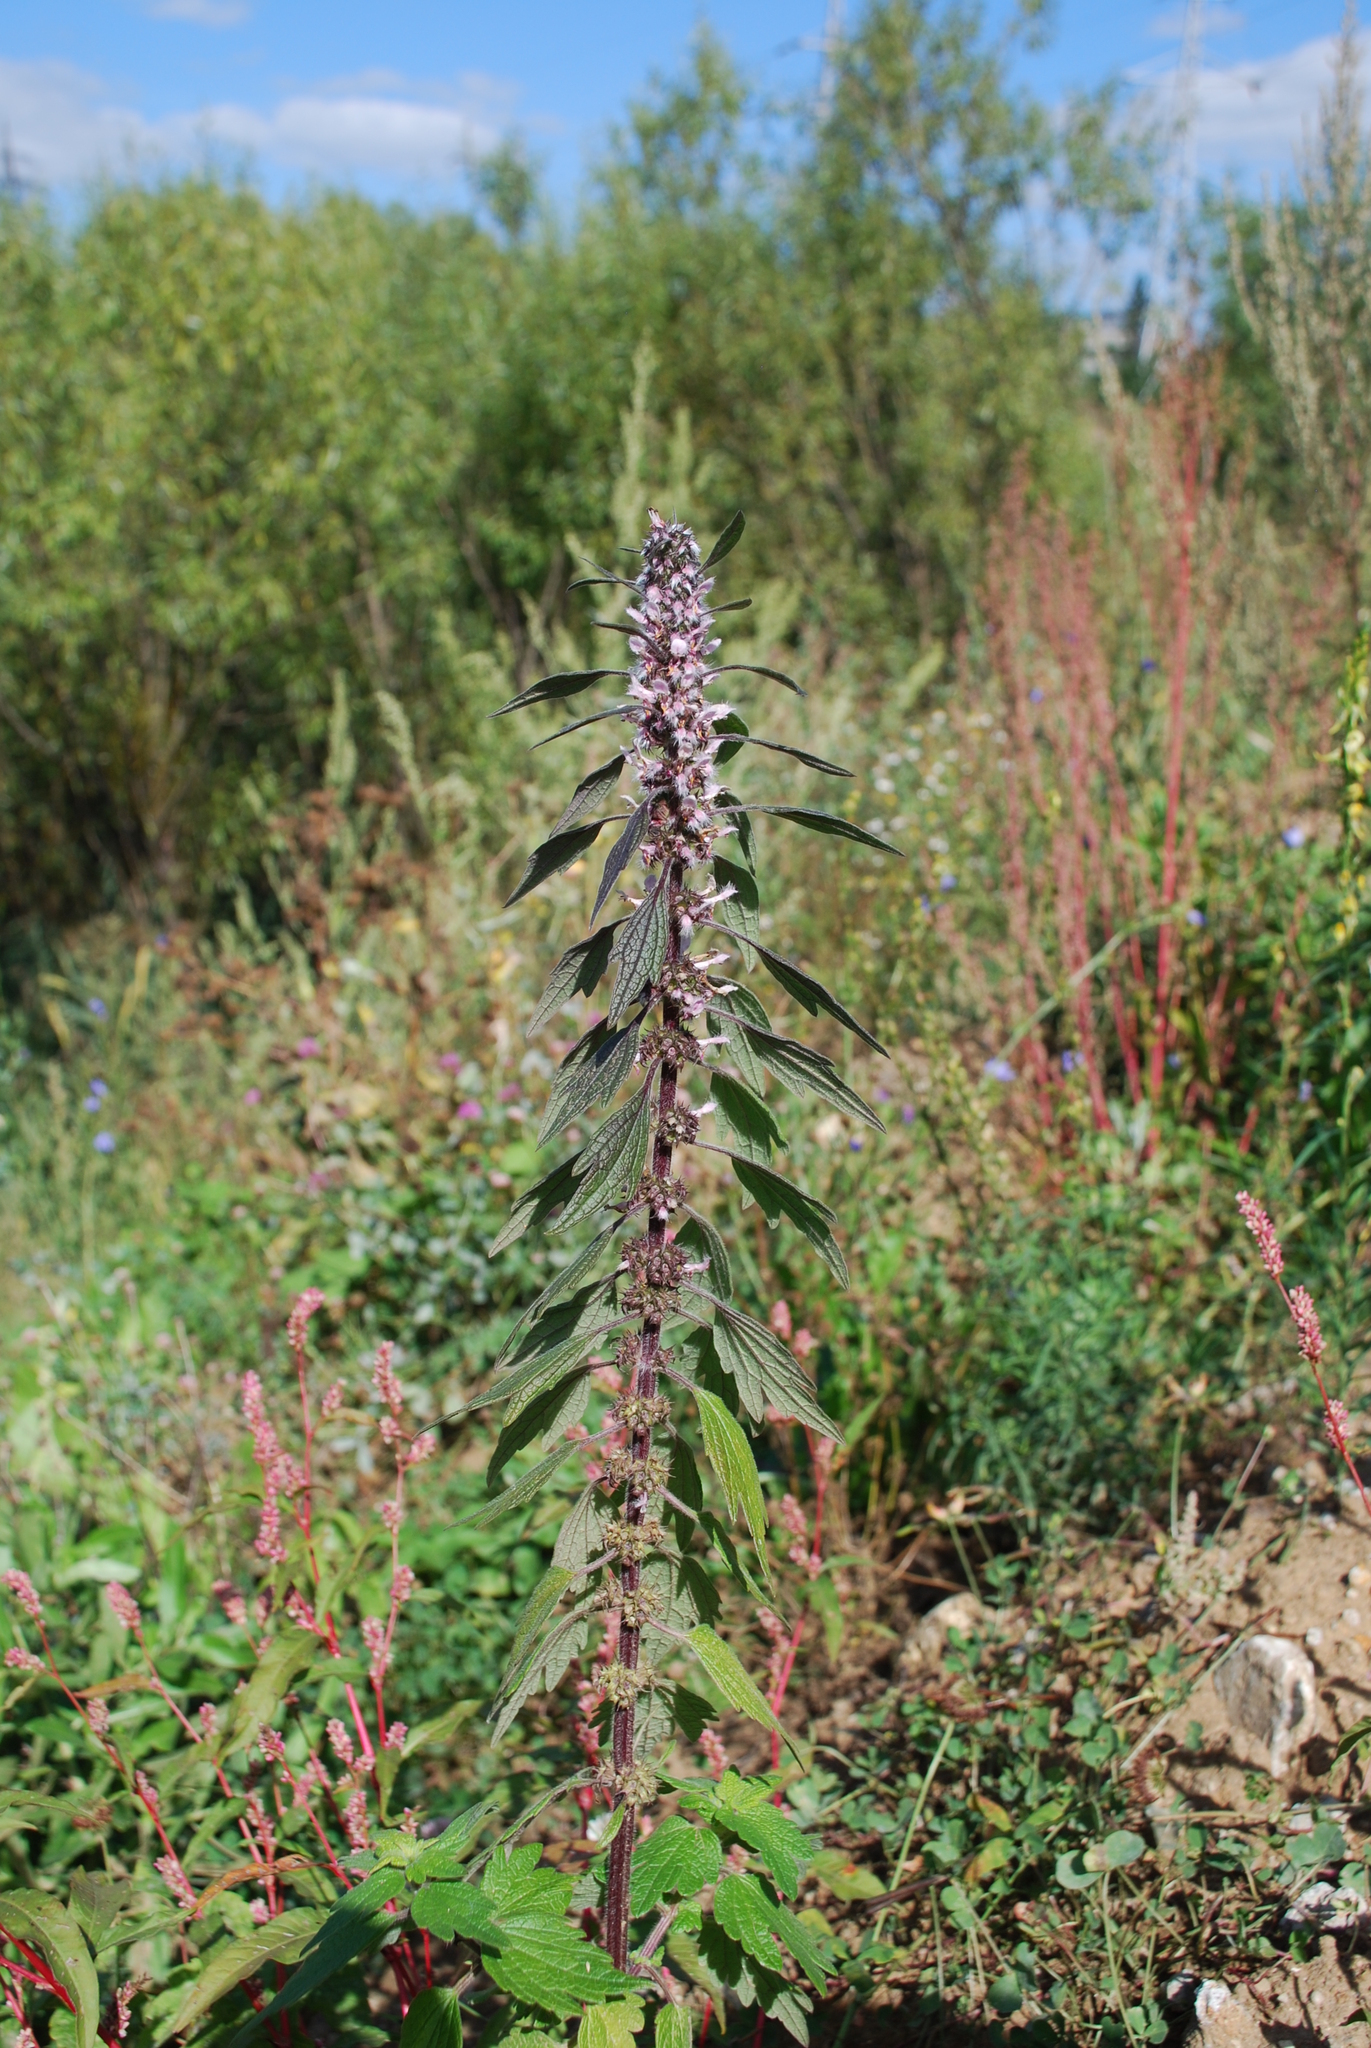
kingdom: Plantae
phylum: Tracheophyta
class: Magnoliopsida
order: Lamiales
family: Lamiaceae
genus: Leonurus
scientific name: Leonurus quinquelobatus
